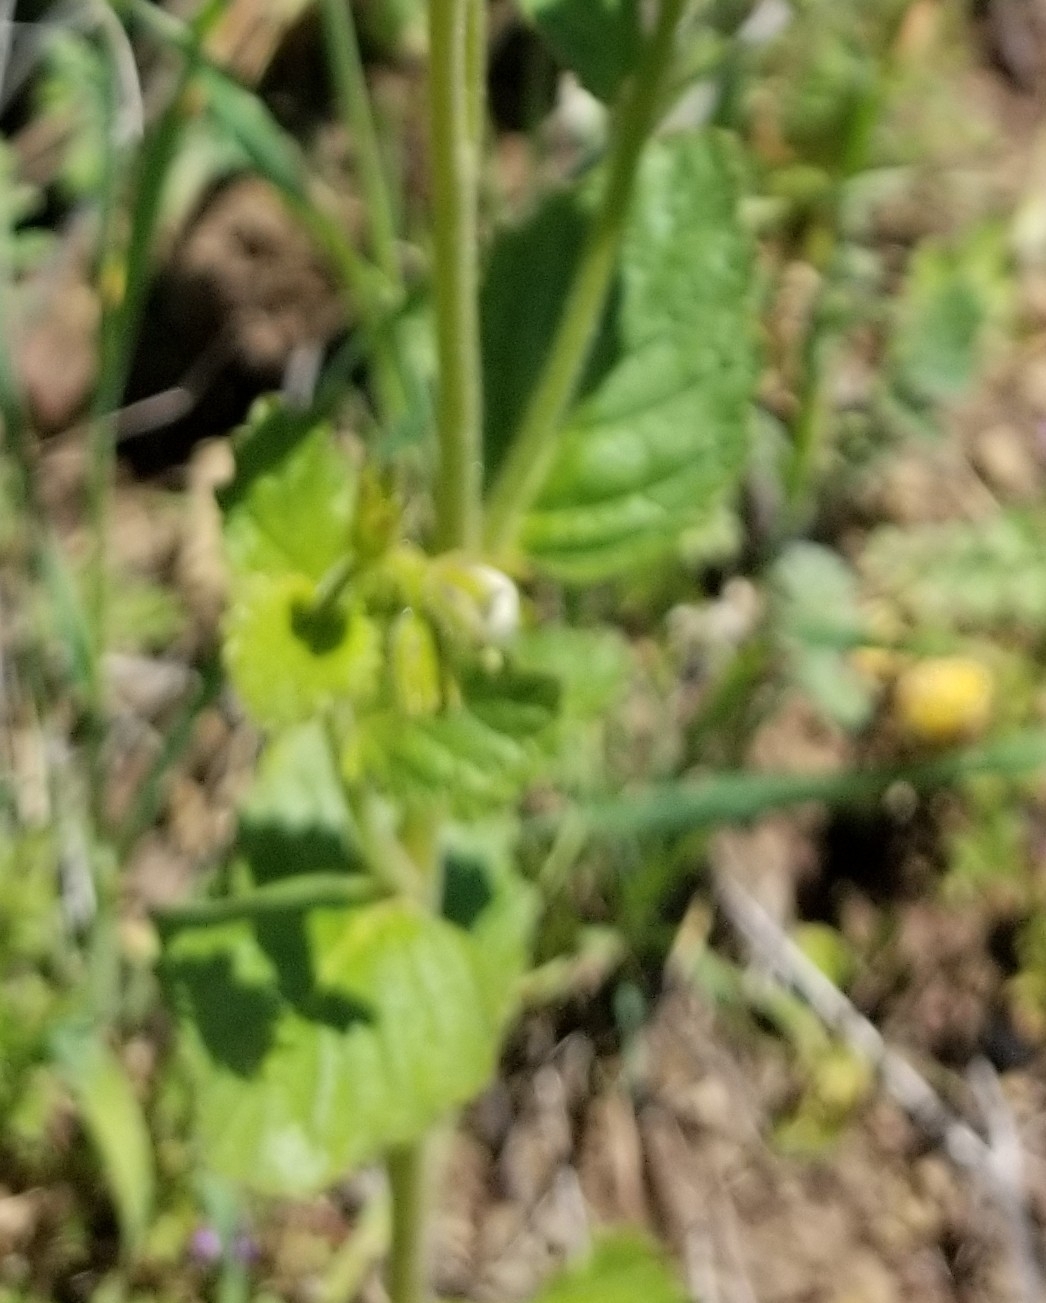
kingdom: Plantae
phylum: Tracheophyta
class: Magnoliopsida
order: Boraginales
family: Hydrophyllaceae
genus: Phacelia
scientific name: Phacelia viscida
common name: Sticky phacelia
